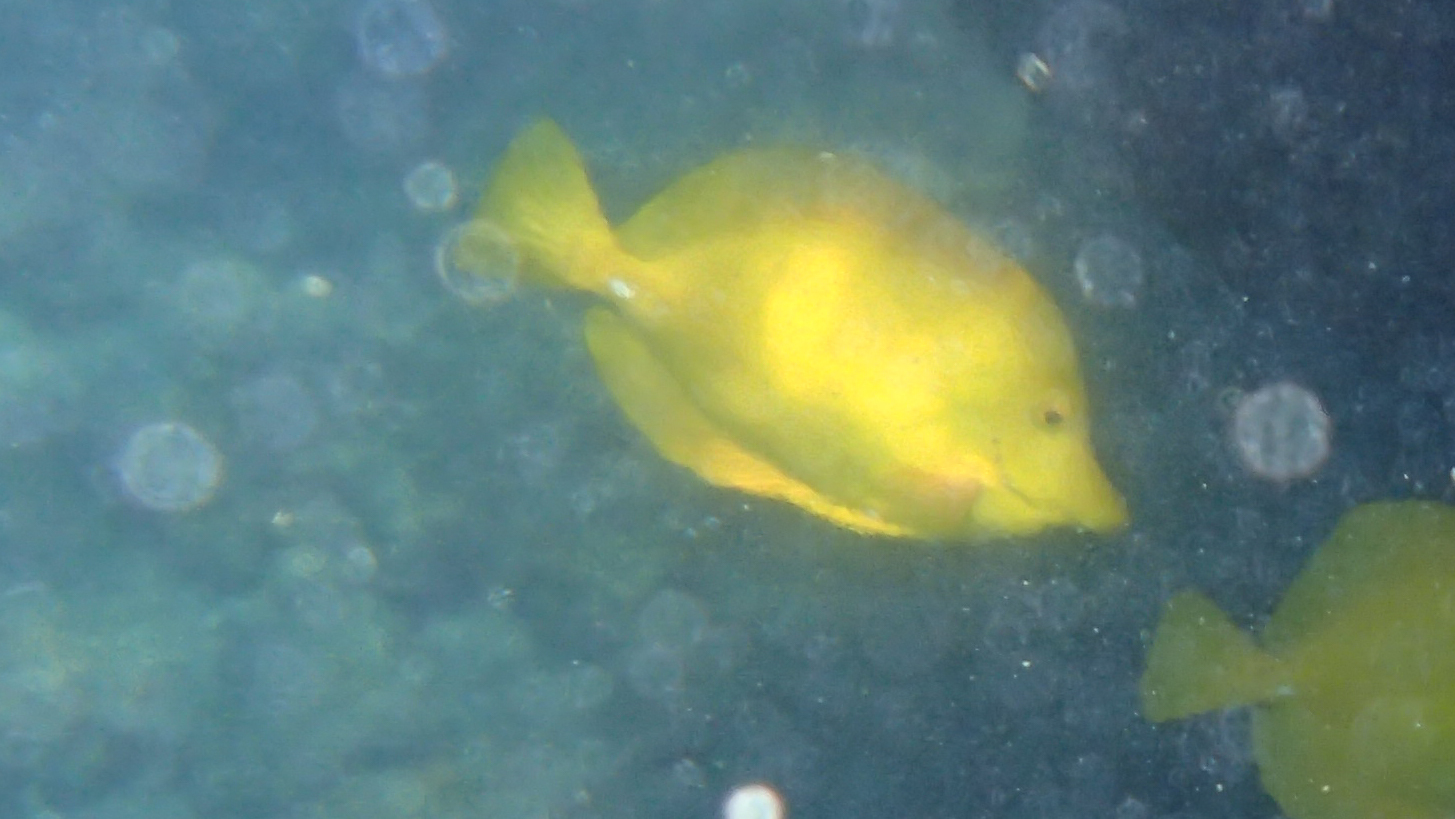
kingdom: Animalia
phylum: Chordata
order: Perciformes
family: Acanthuridae
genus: Zebrasoma
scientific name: Zebrasoma flavescens
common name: Yellow tang
